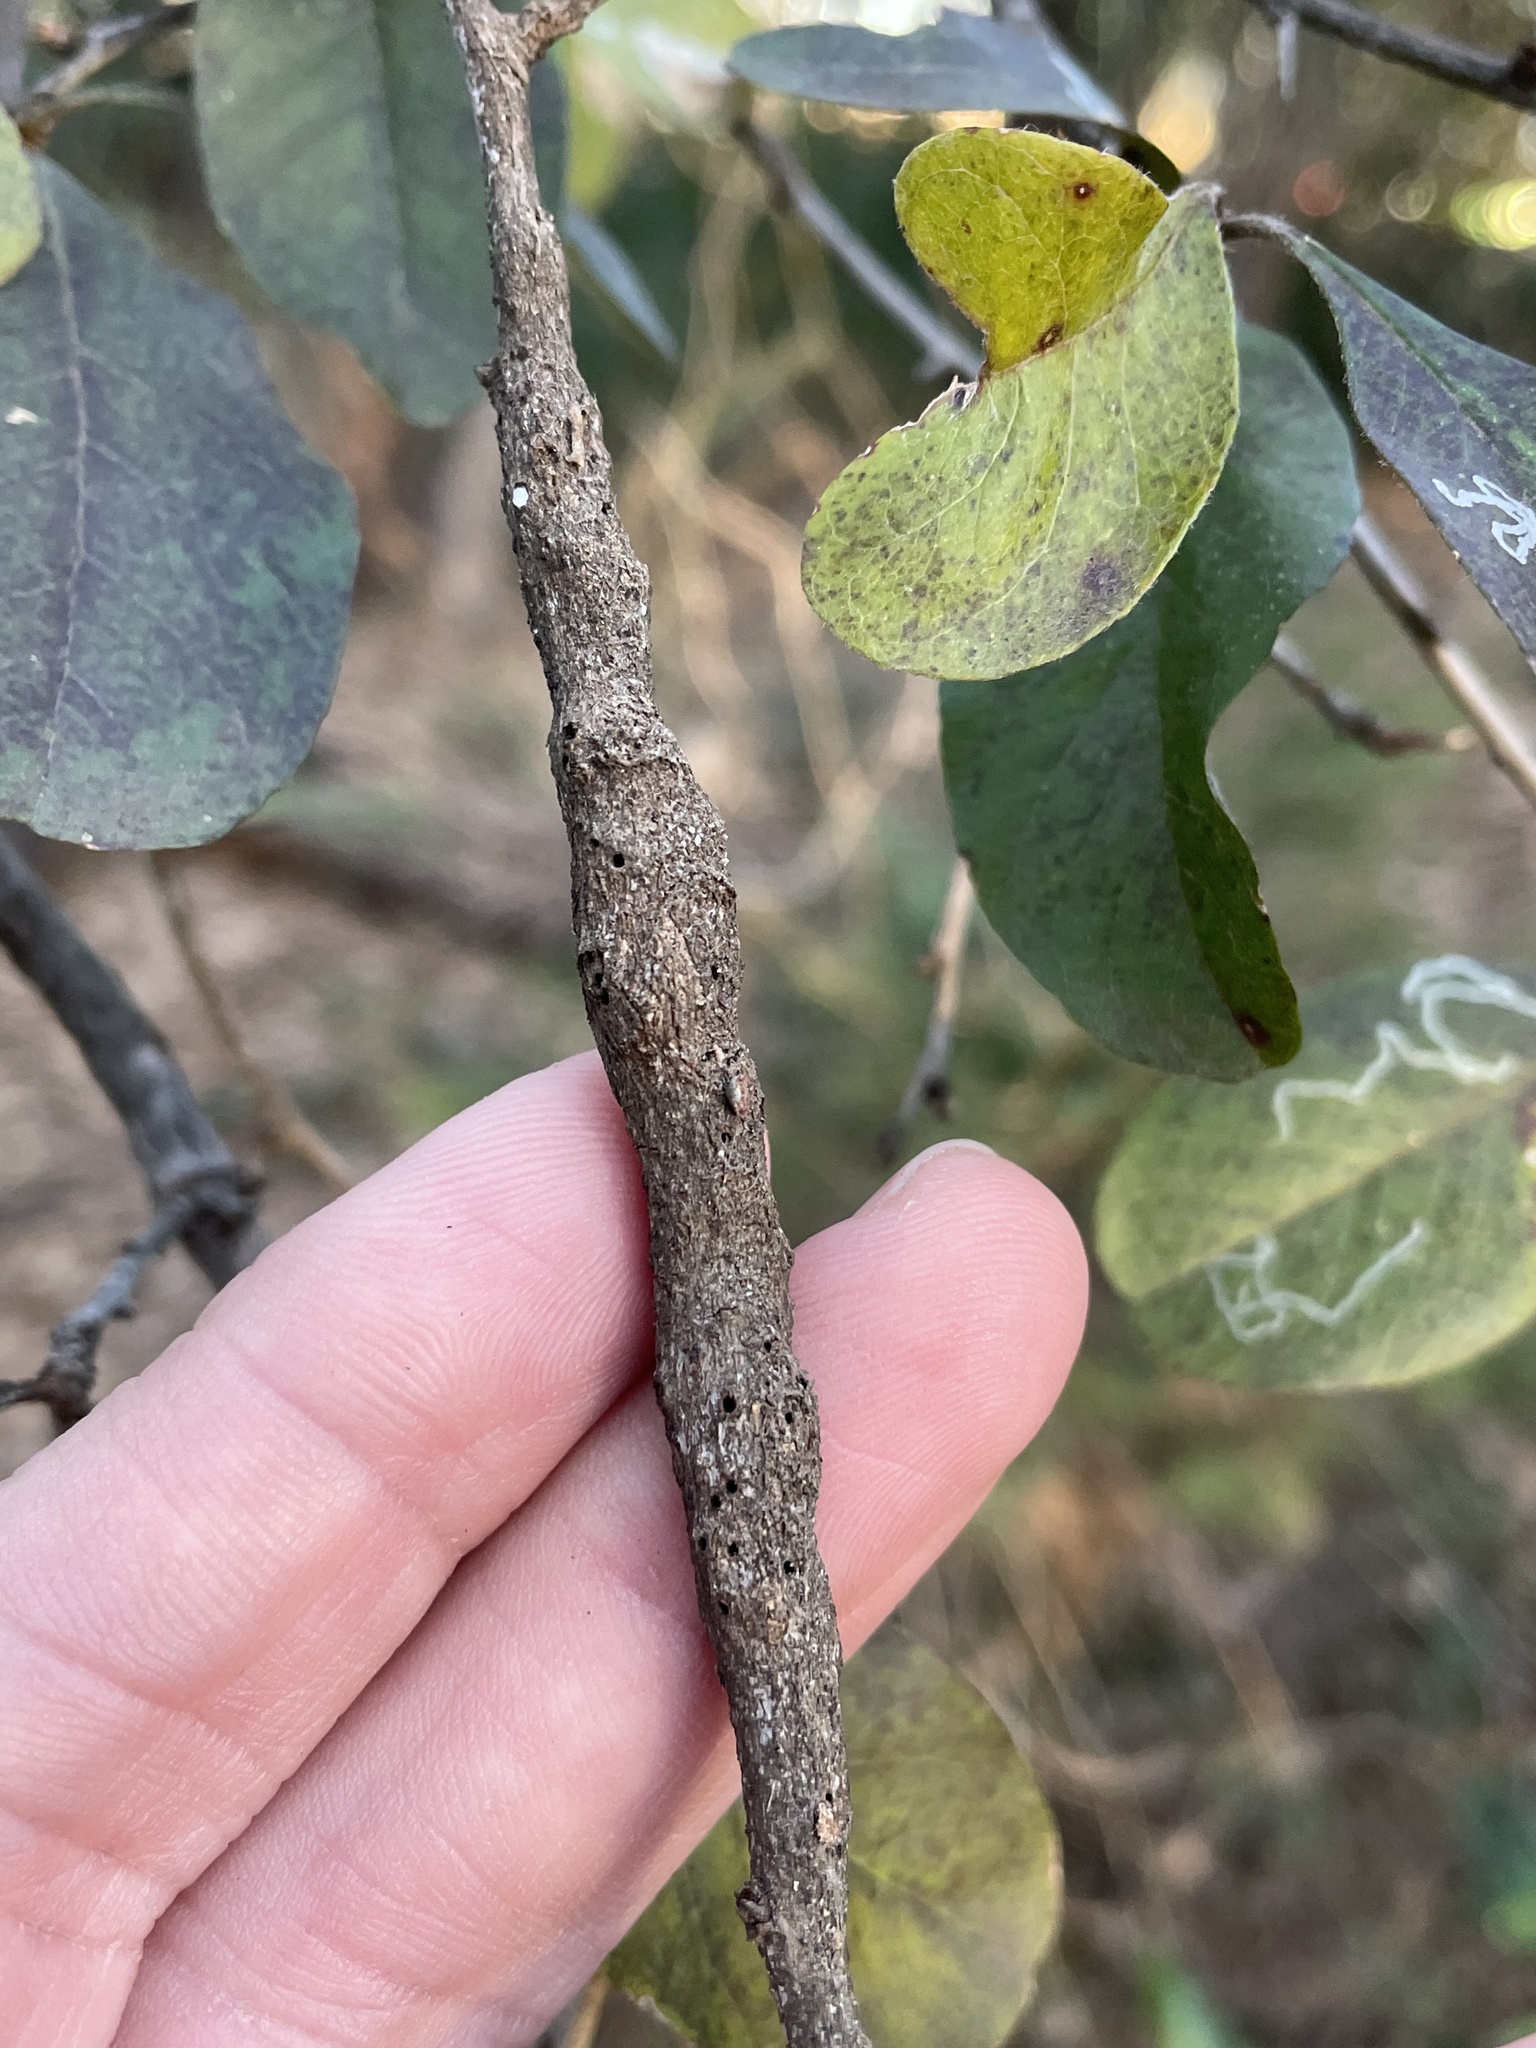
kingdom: Animalia
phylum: Arthropoda
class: Insecta
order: Diptera
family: Cecidomyiidae
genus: Bruggmanniella
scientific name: Bruggmanniella bumeliae
